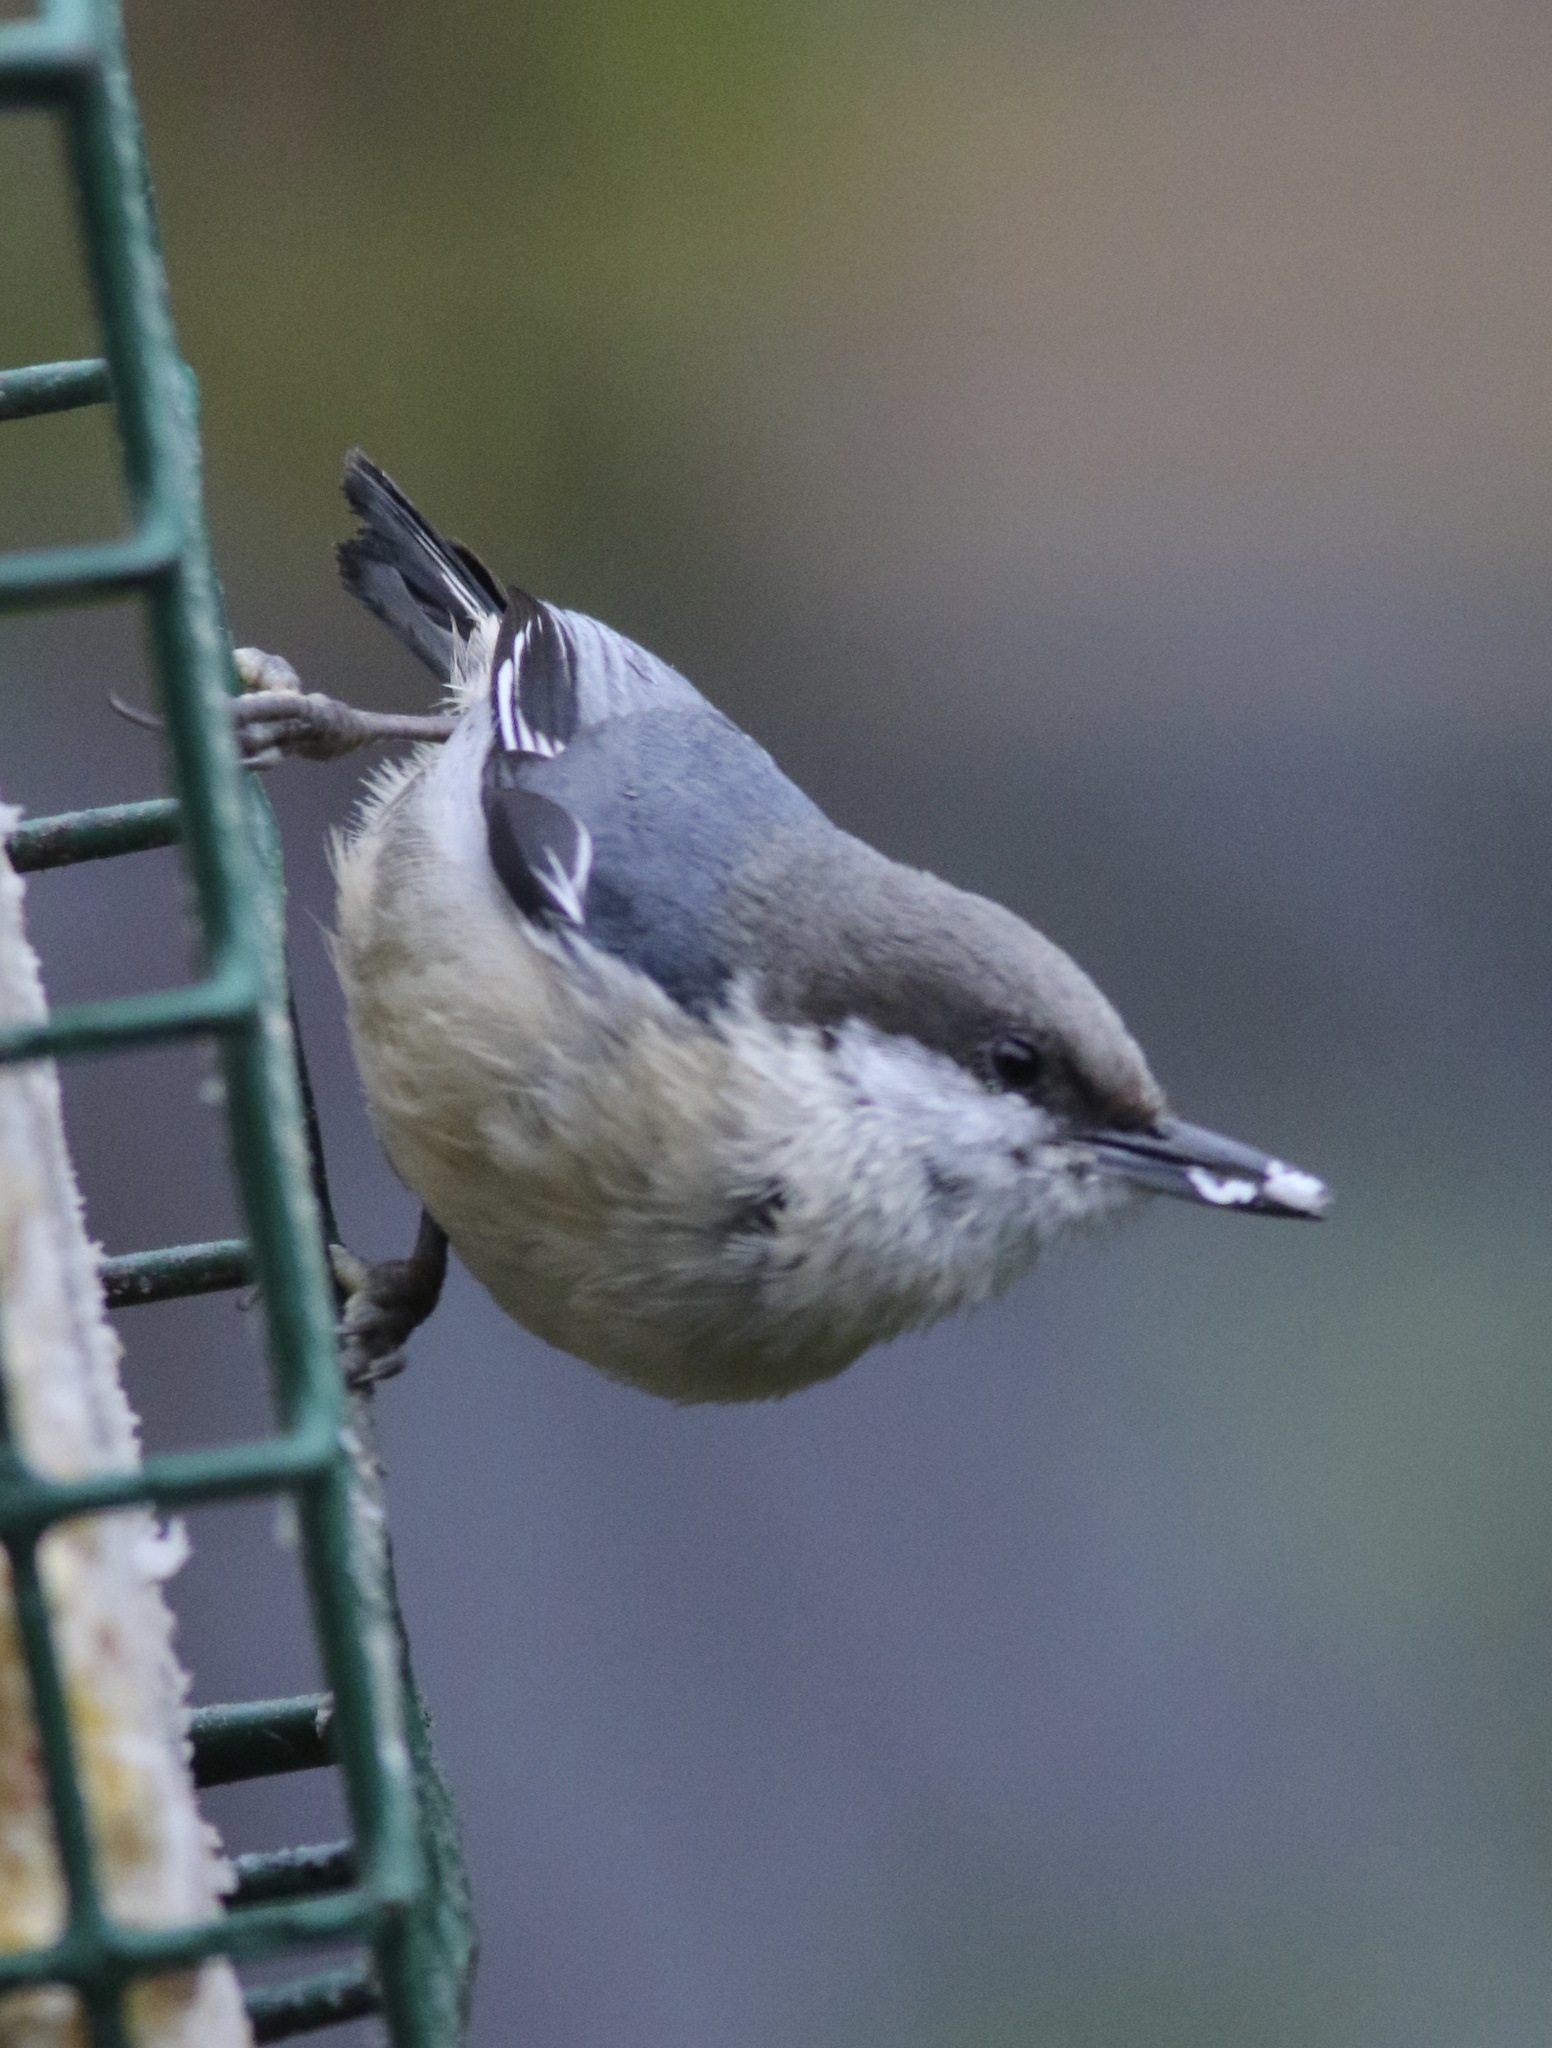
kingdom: Animalia
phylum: Chordata
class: Aves
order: Passeriformes
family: Sittidae
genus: Sitta
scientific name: Sitta pygmaea
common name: Pygmy nuthatch
